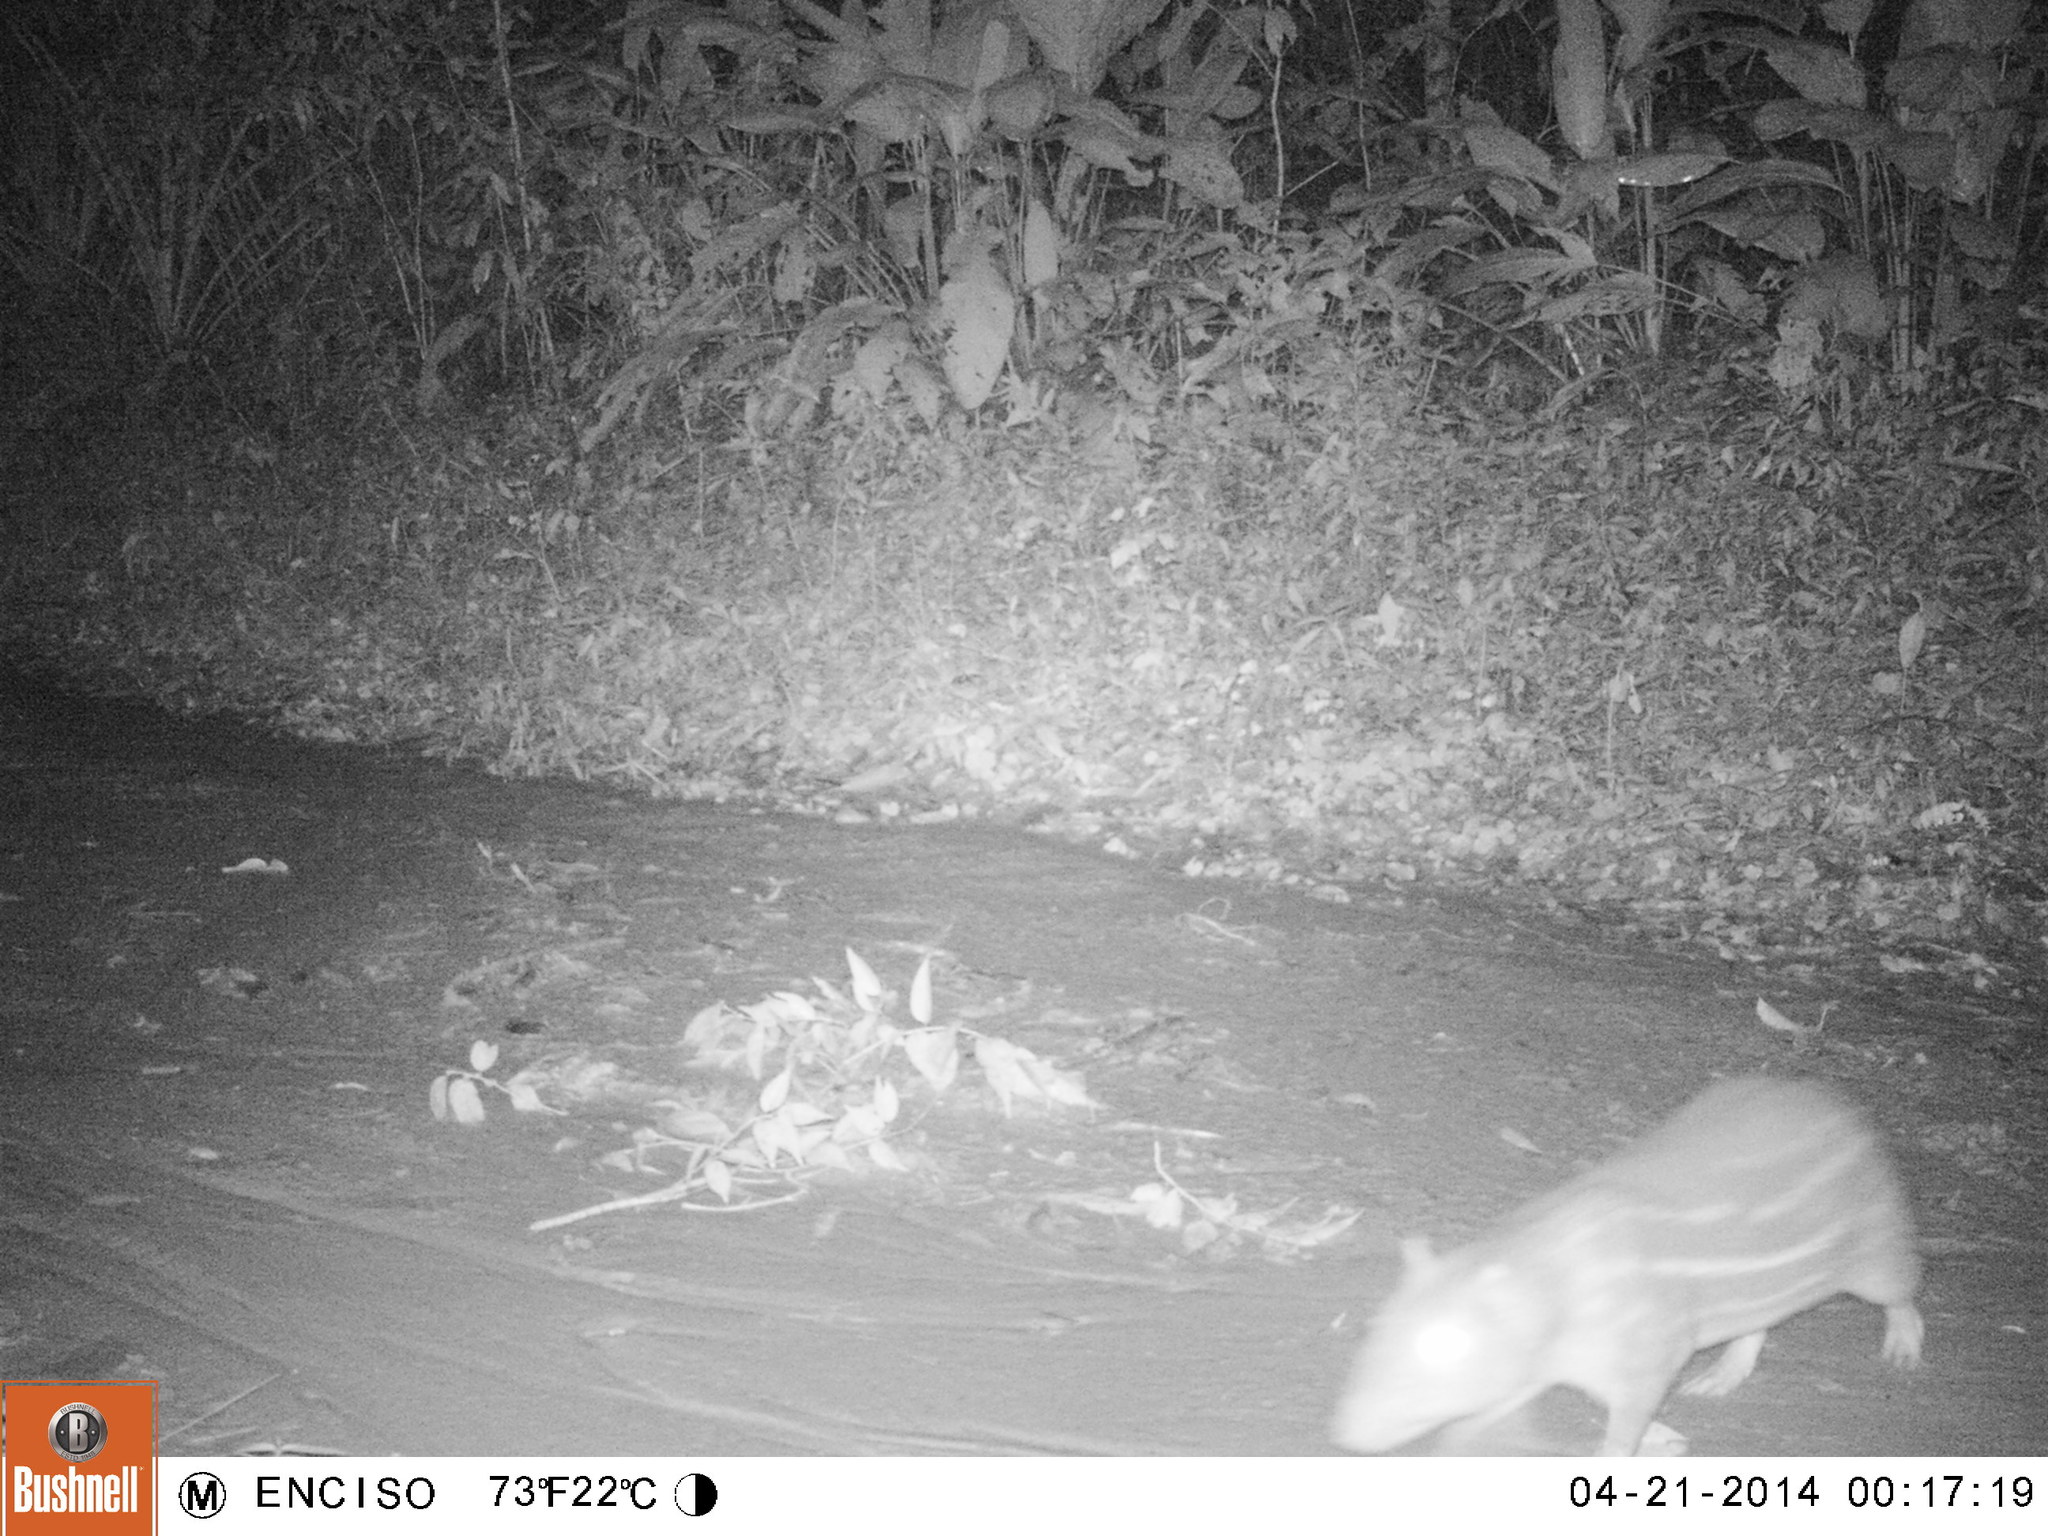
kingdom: Animalia
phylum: Chordata
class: Mammalia
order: Rodentia
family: Cuniculidae
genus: Cuniculus
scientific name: Cuniculus paca
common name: Lowland paca
